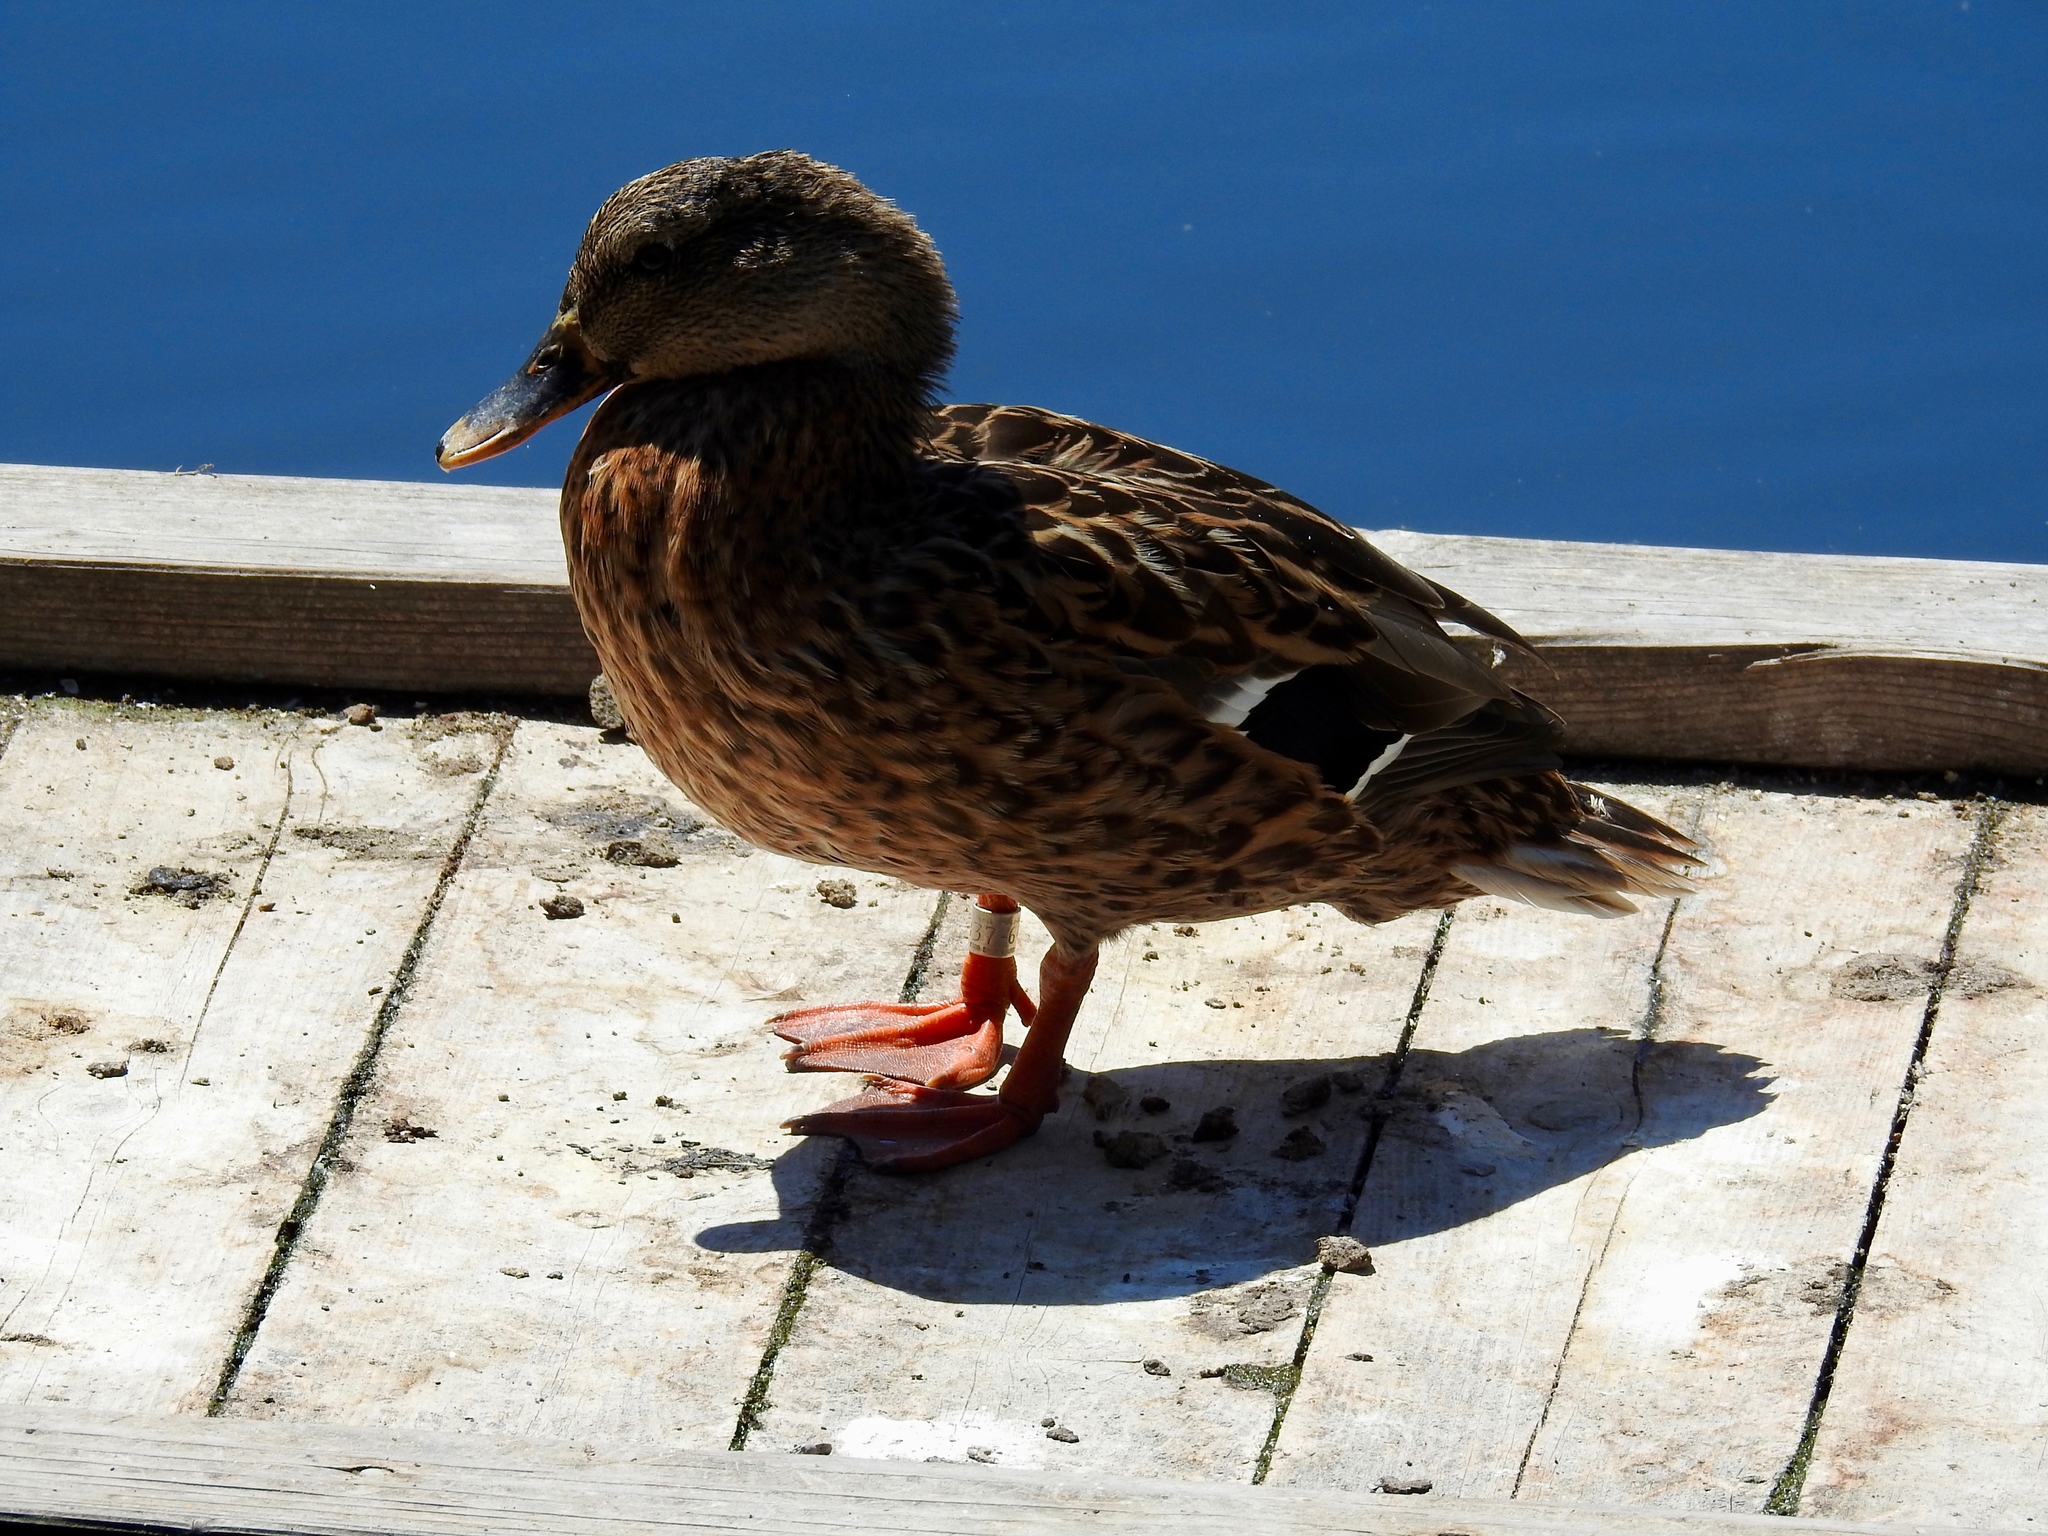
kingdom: Animalia
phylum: Chordata
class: Aves
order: Anseriformes
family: Anatidae
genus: Anas
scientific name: Anas platyrhynchos
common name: Mallard
